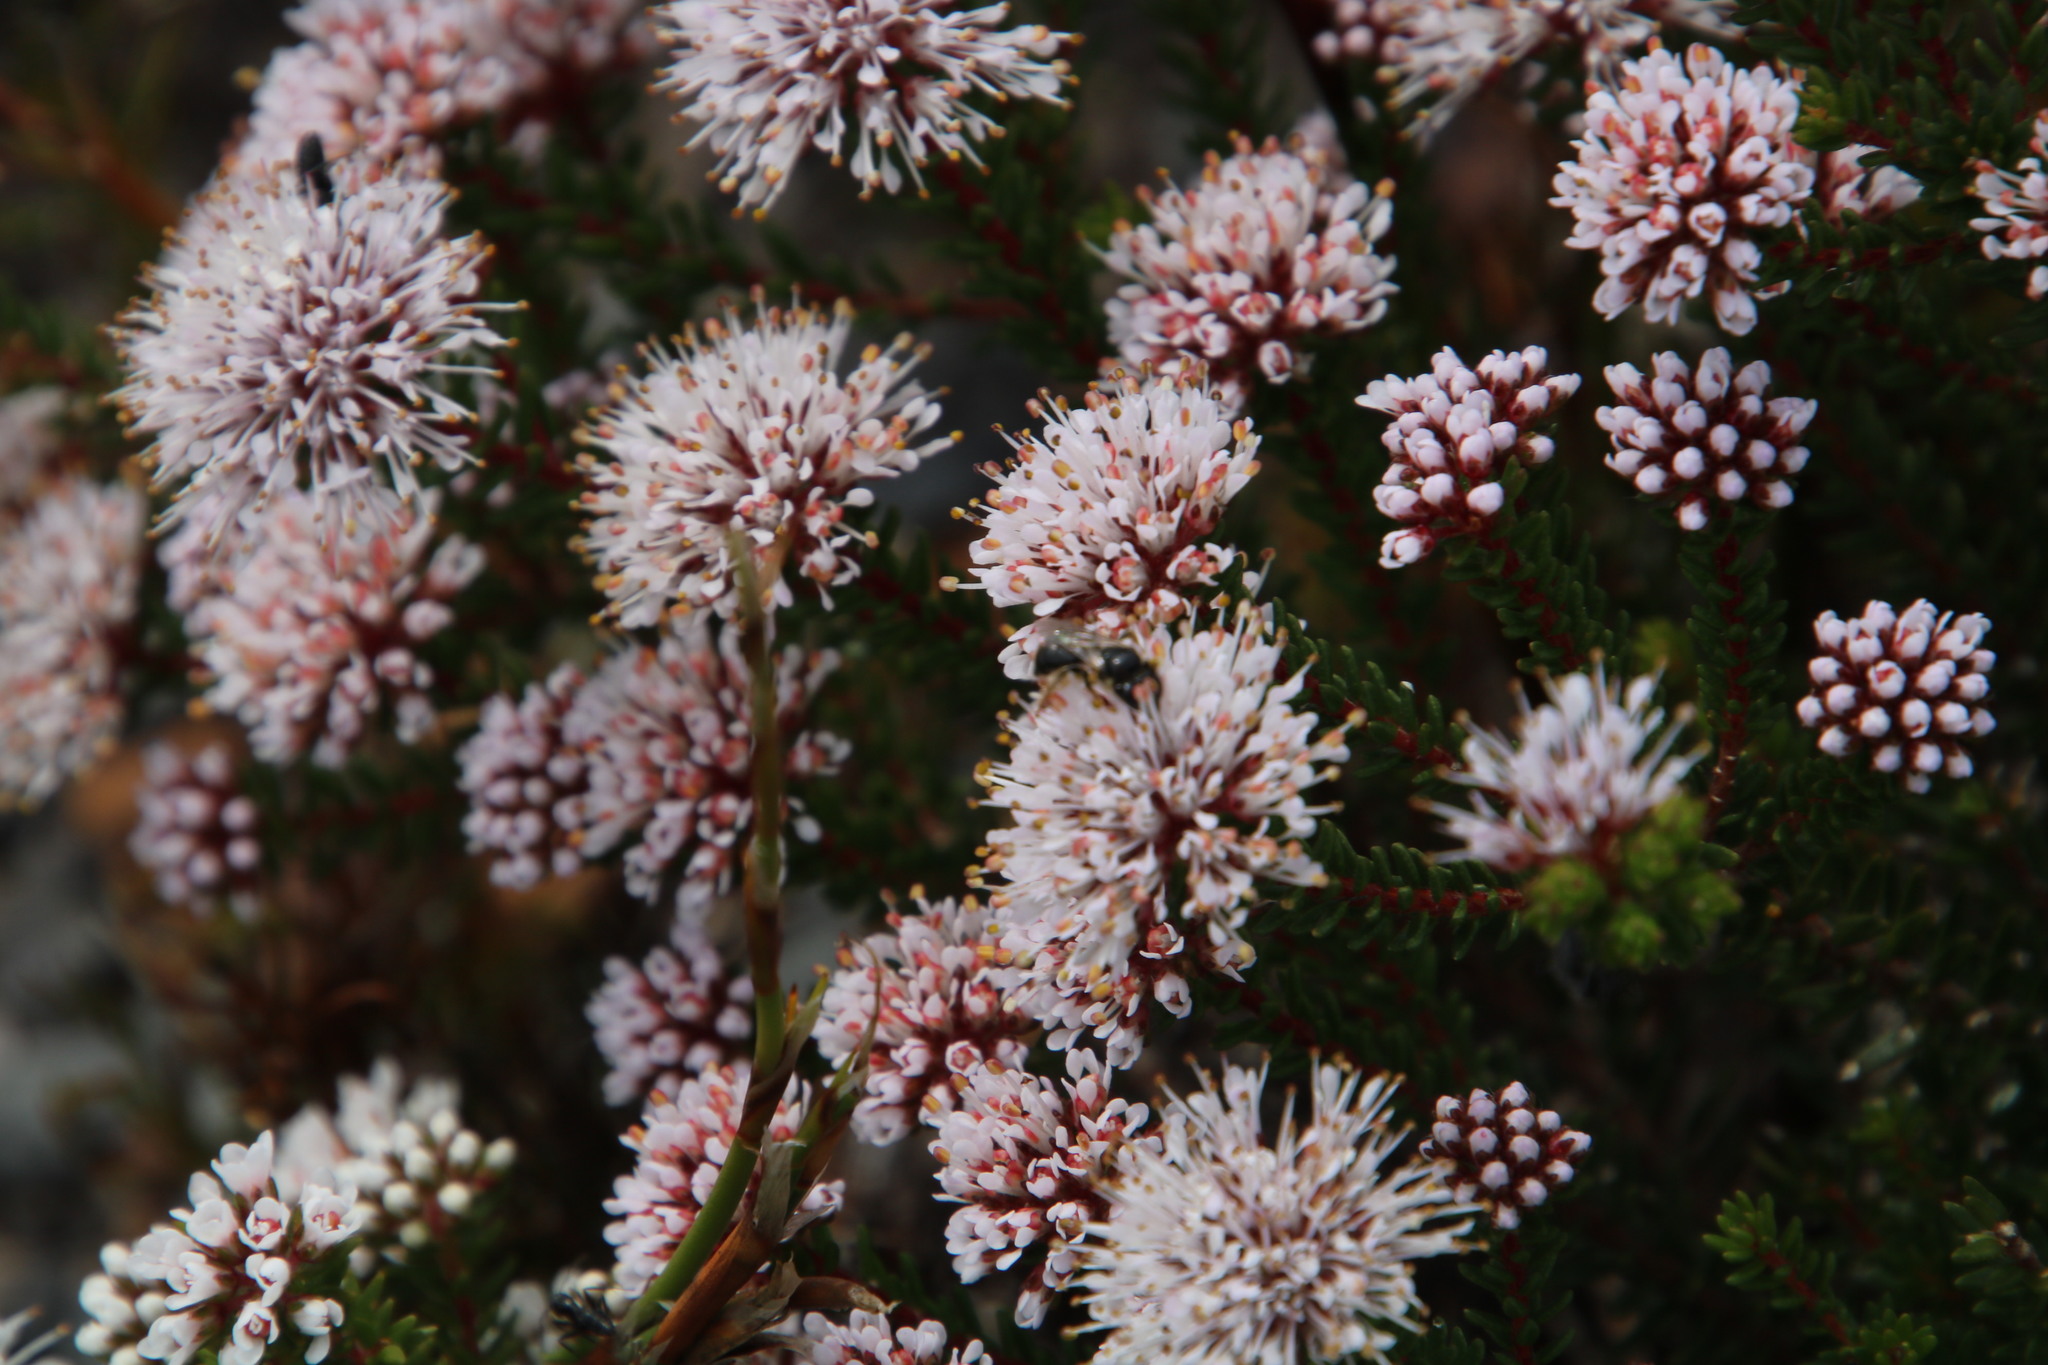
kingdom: Animalia
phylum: Arthropoda
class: Insecta
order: Hymenoptera
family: Apidae
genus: Braunsapis
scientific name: Braunsapis
